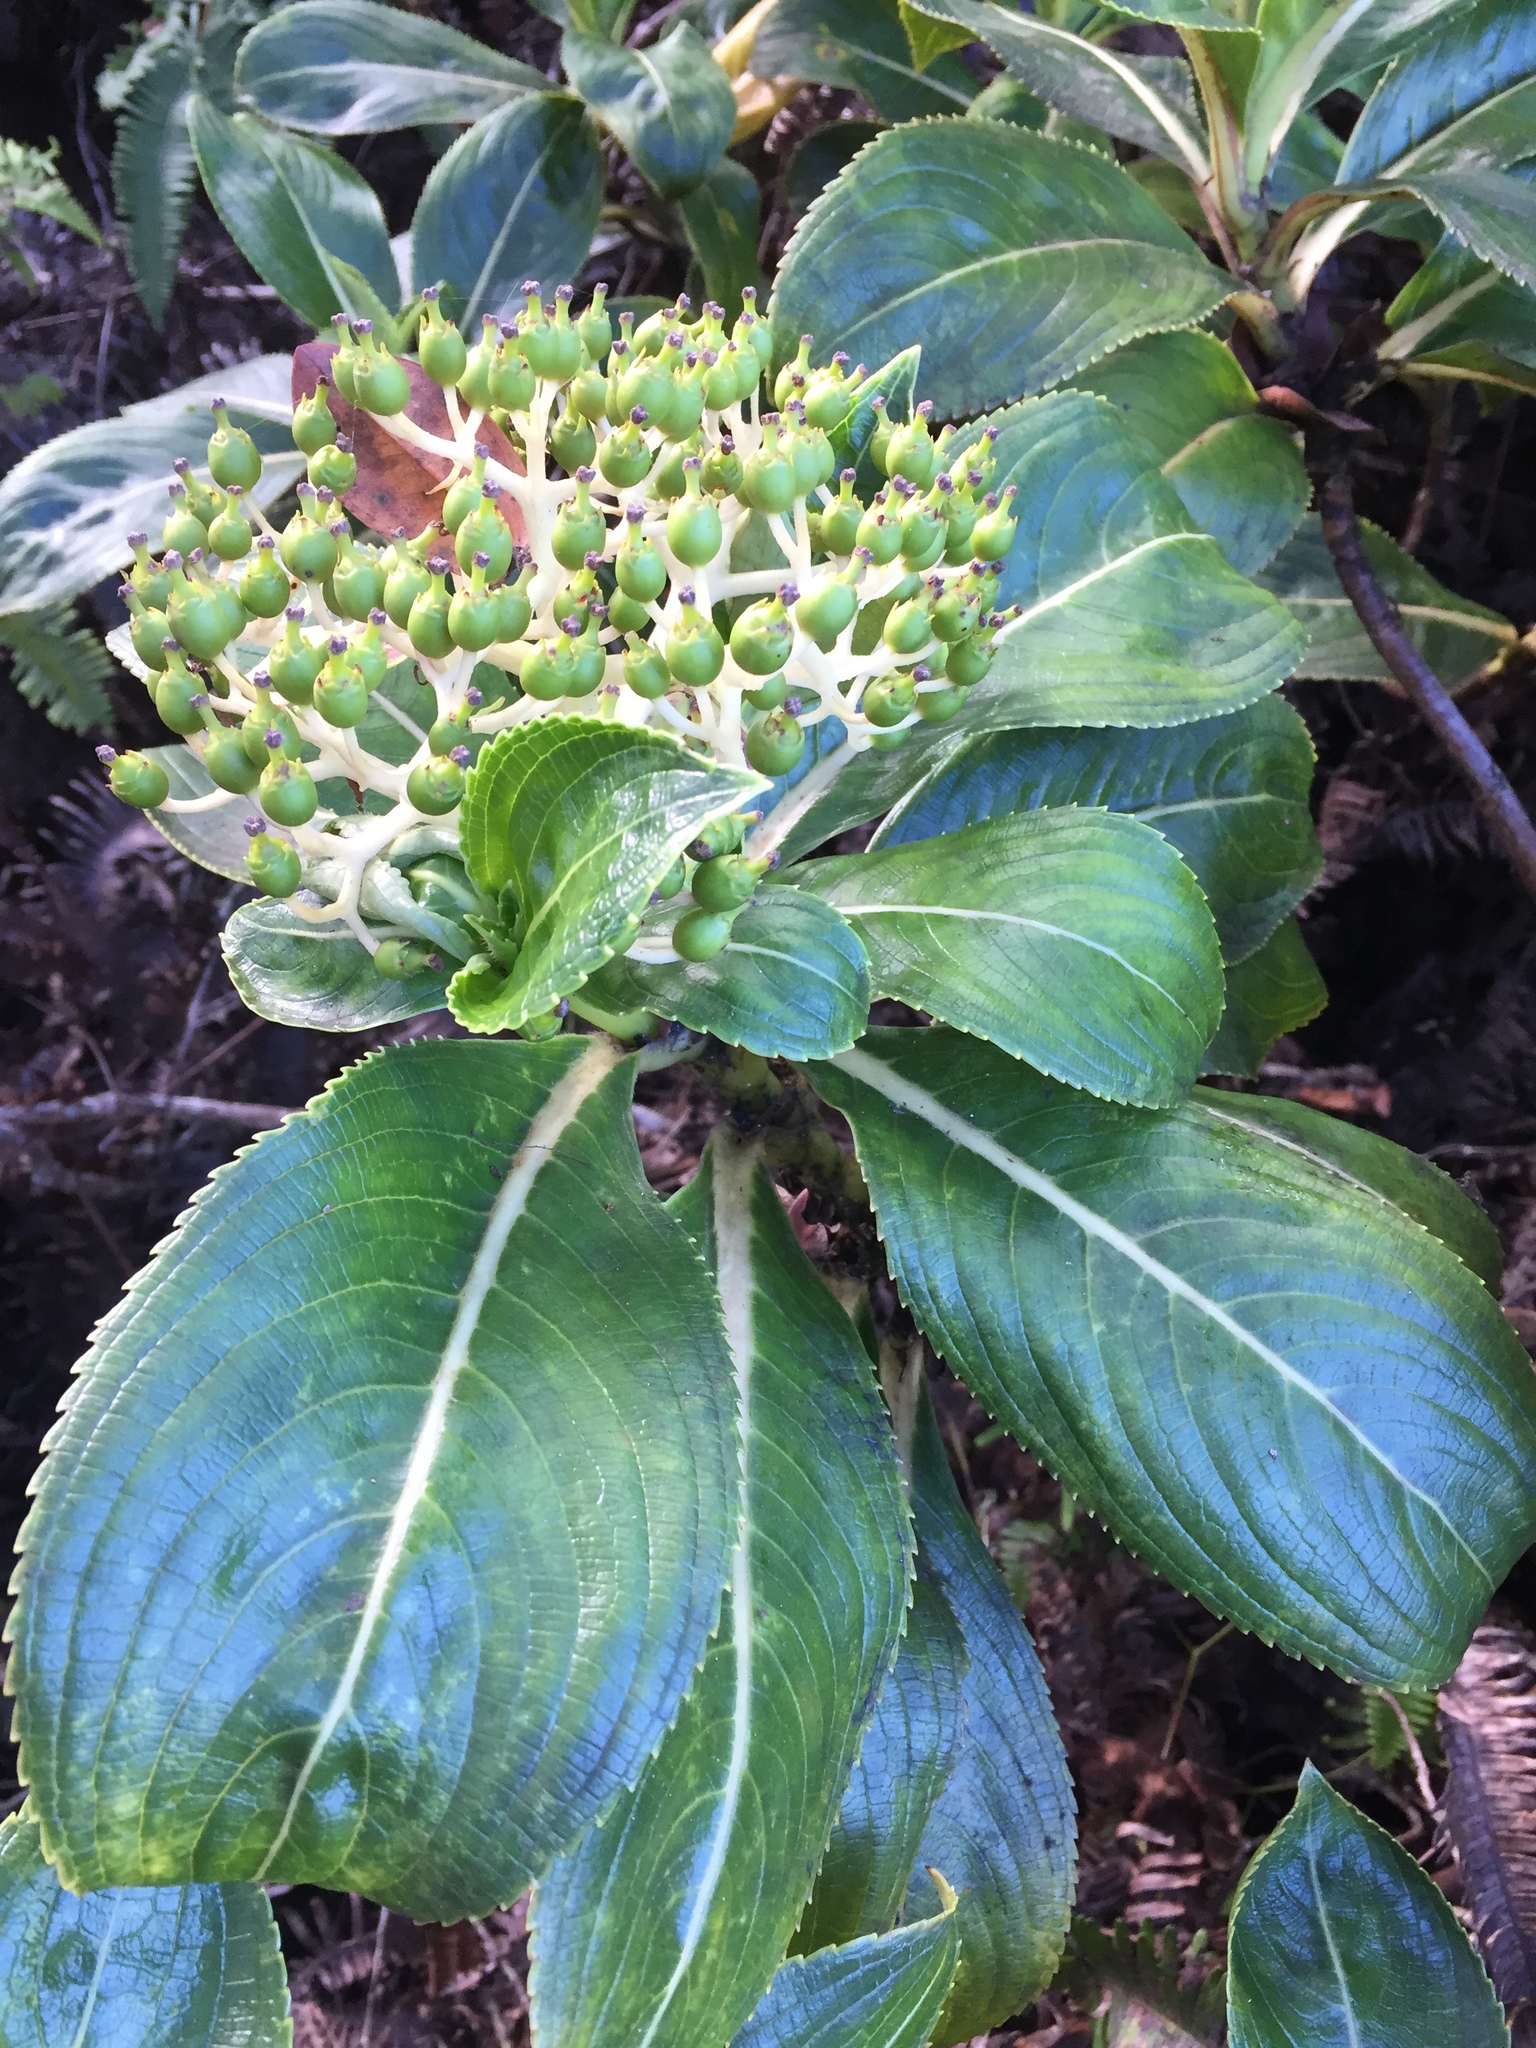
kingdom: Plantae
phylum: Tracheophyta
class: Magnoliopsida
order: Cornales
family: Hydrangeaceae
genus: Hydrangea
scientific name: Hydrangea arguta
